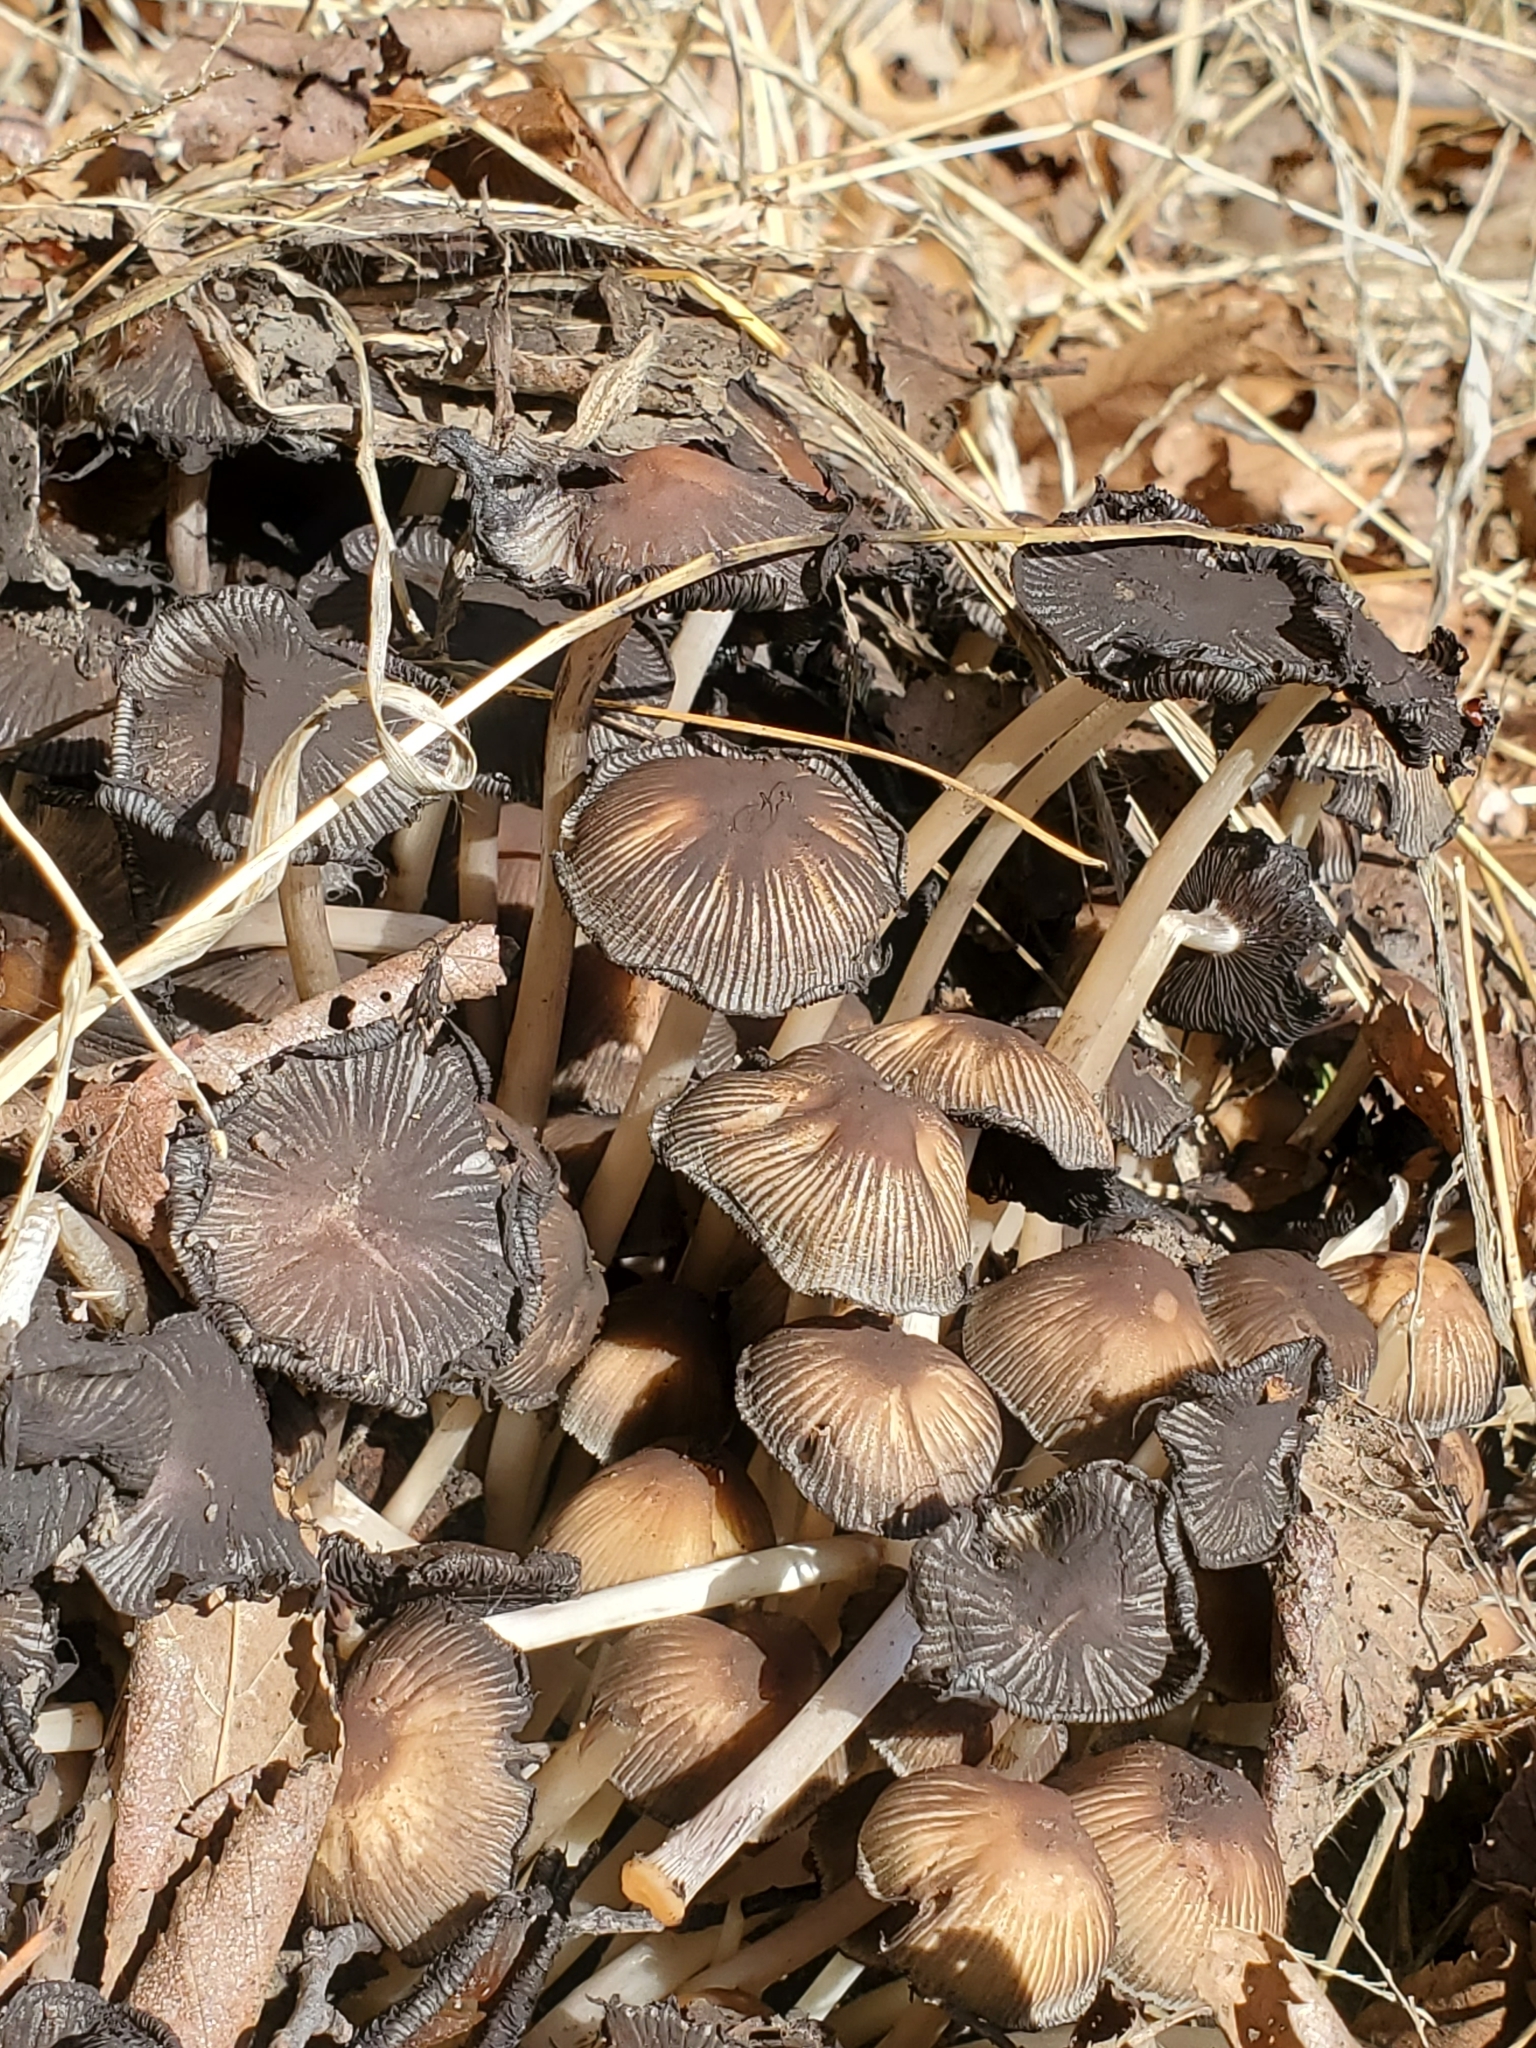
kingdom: Fungi
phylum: Basidiomycota
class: Agaricomycetes
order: Agaricales
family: Psathyrellaceae
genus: Coprinellus
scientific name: Coprinellus micaceus
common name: Glistening ink-cap
